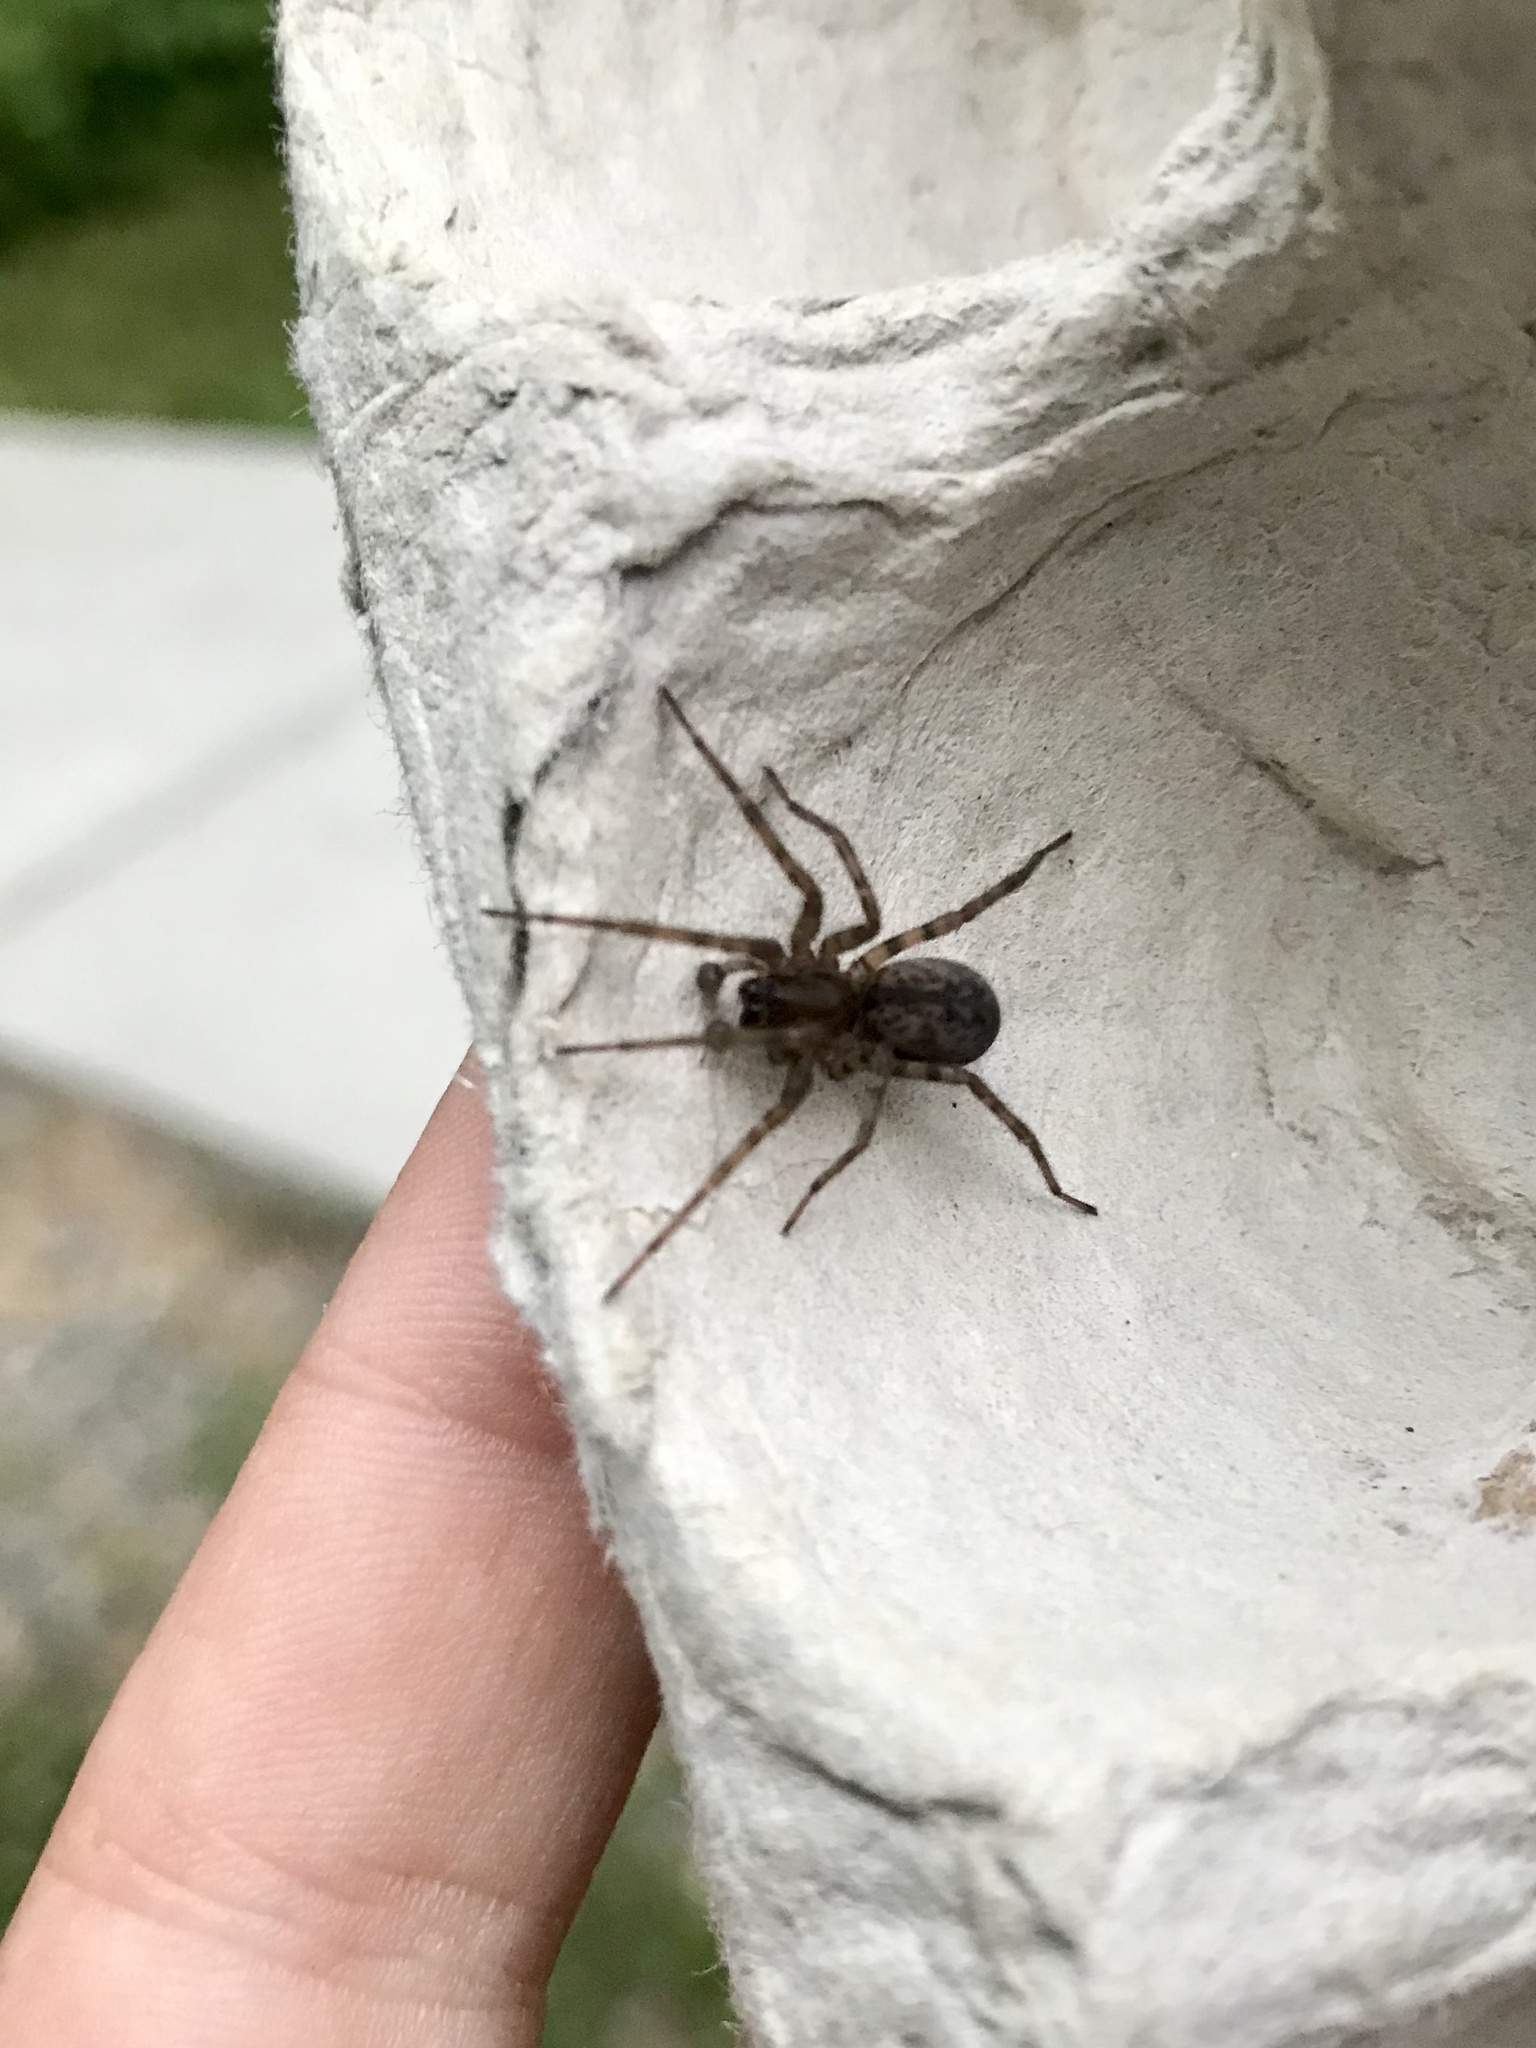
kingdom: Animalia
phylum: Arthropoda
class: Arachnida
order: Araneae
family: Agelenidae
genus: Coras
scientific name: Coras
